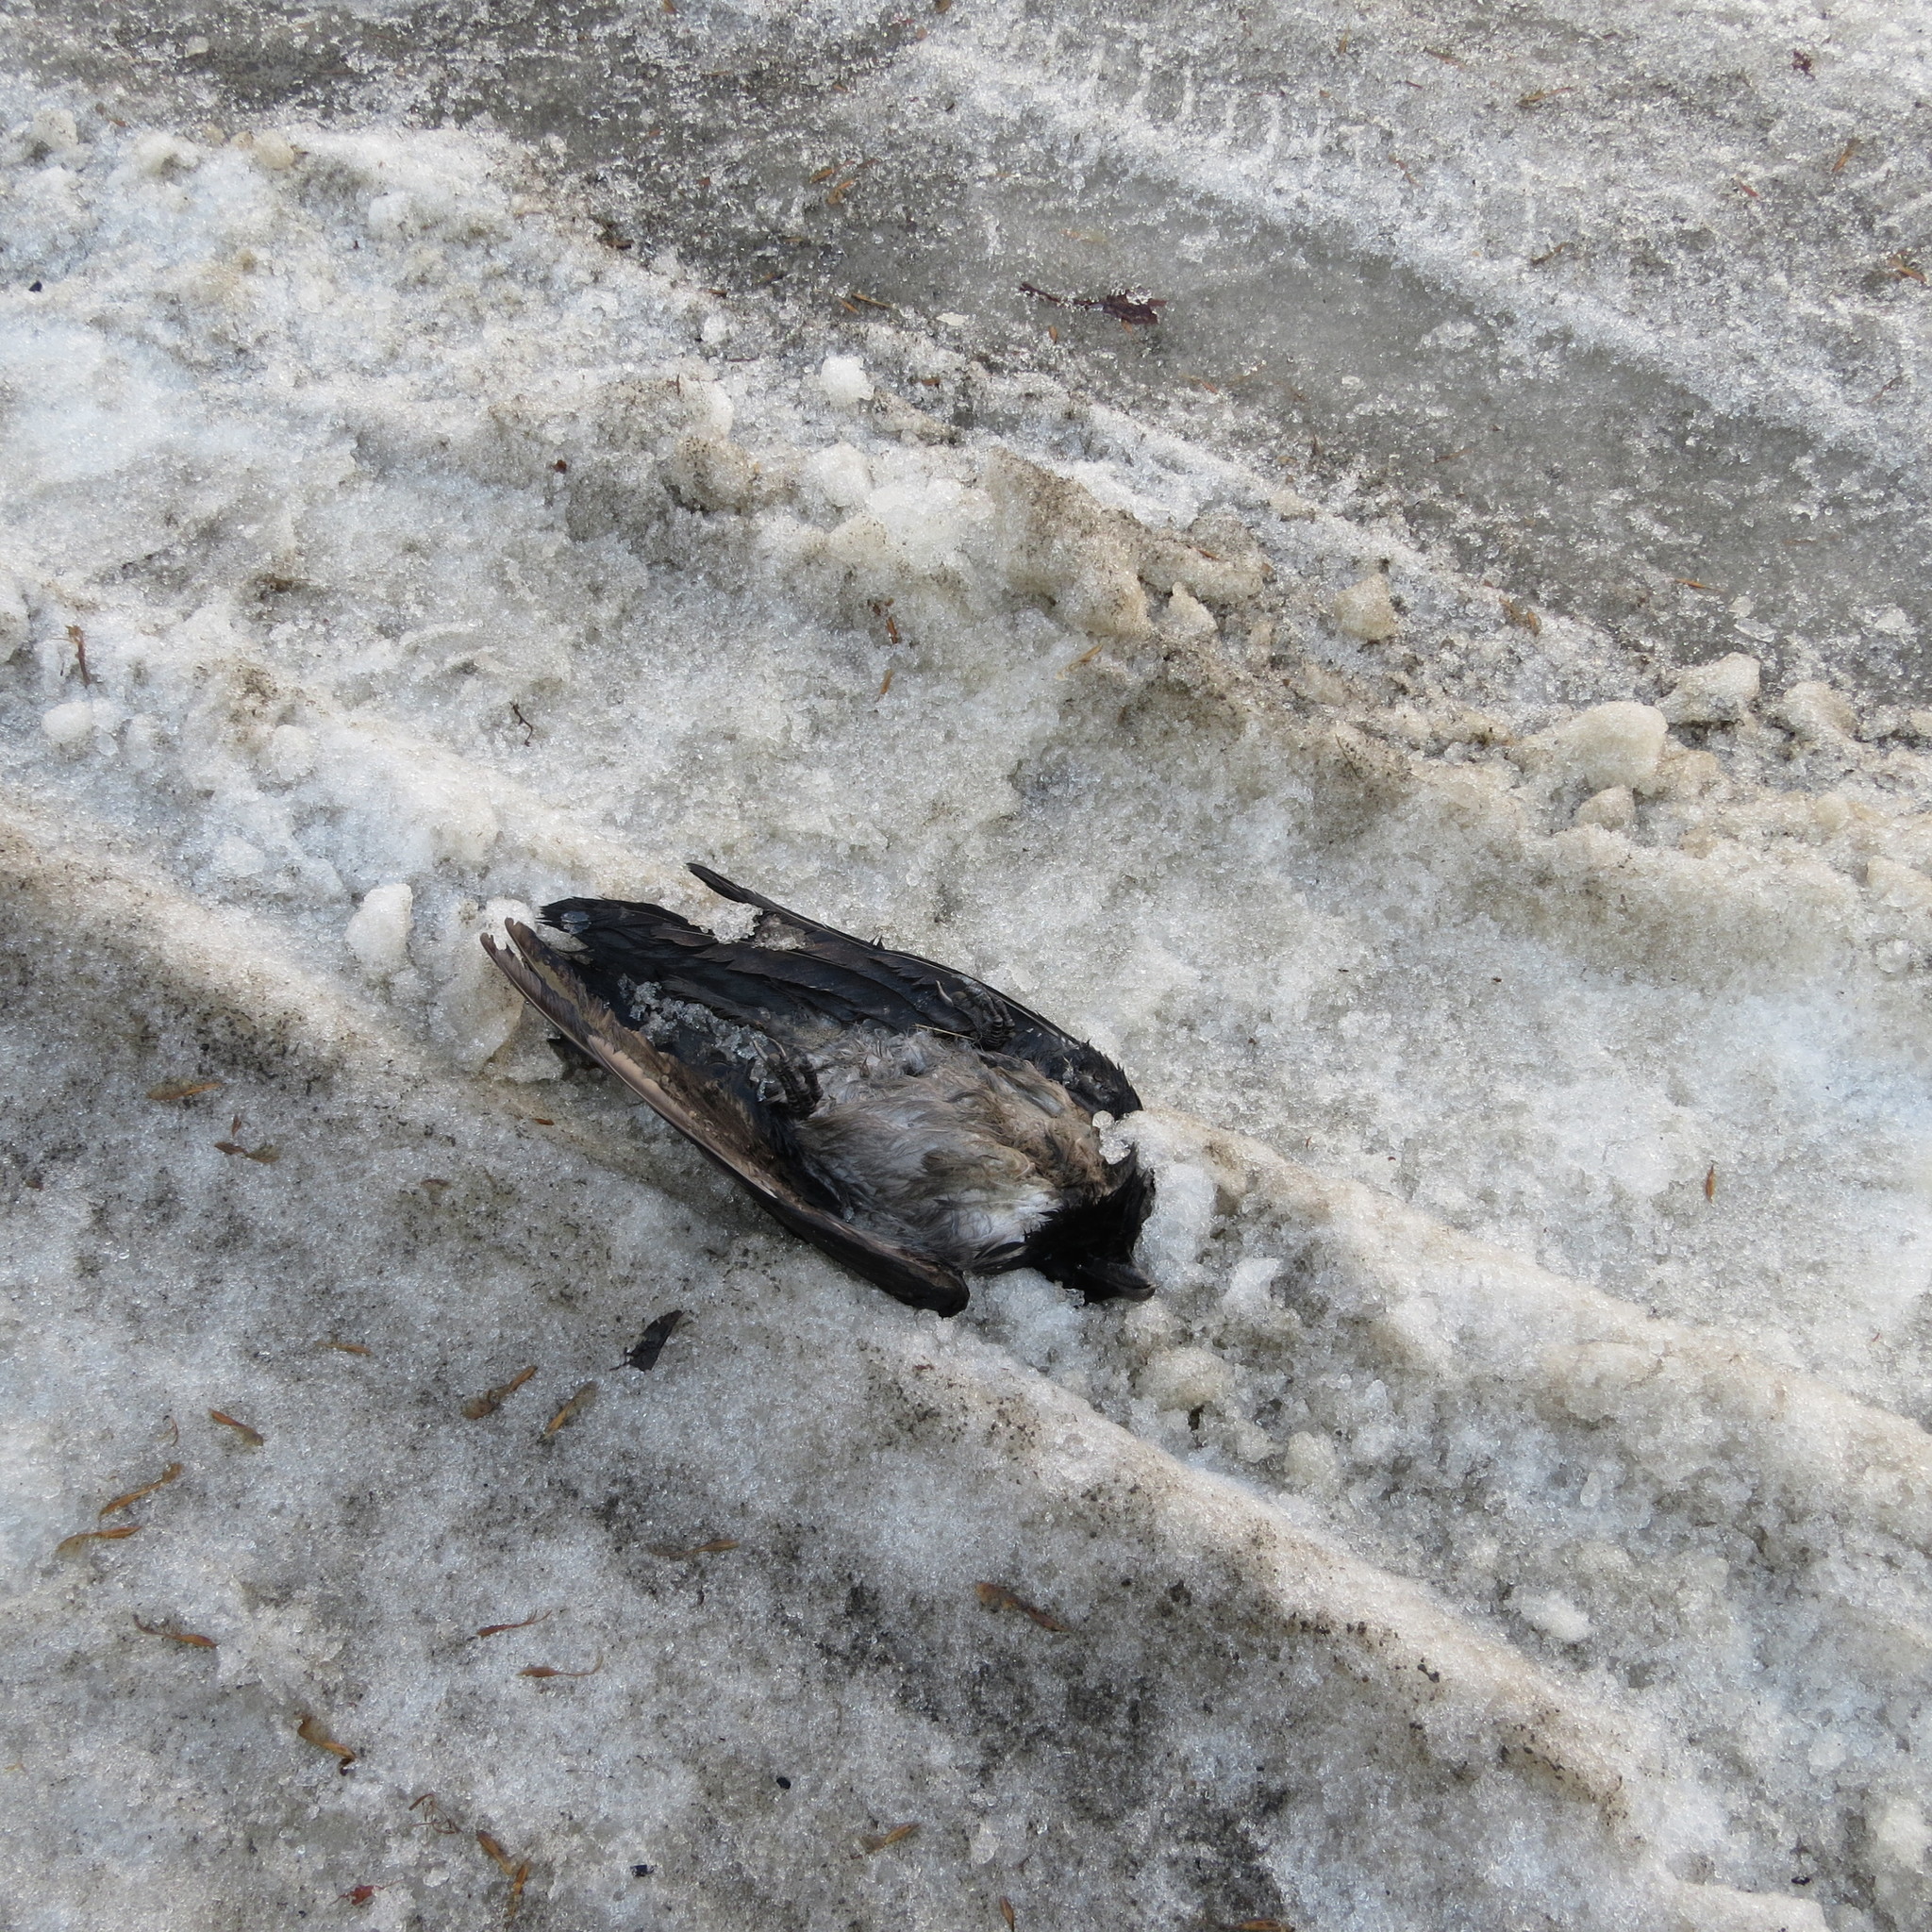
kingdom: Animalia
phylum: Chordata
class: Aves
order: Passeriformes
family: Corvidae
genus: Corvus
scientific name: Corvus cornix
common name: Hooded crow
